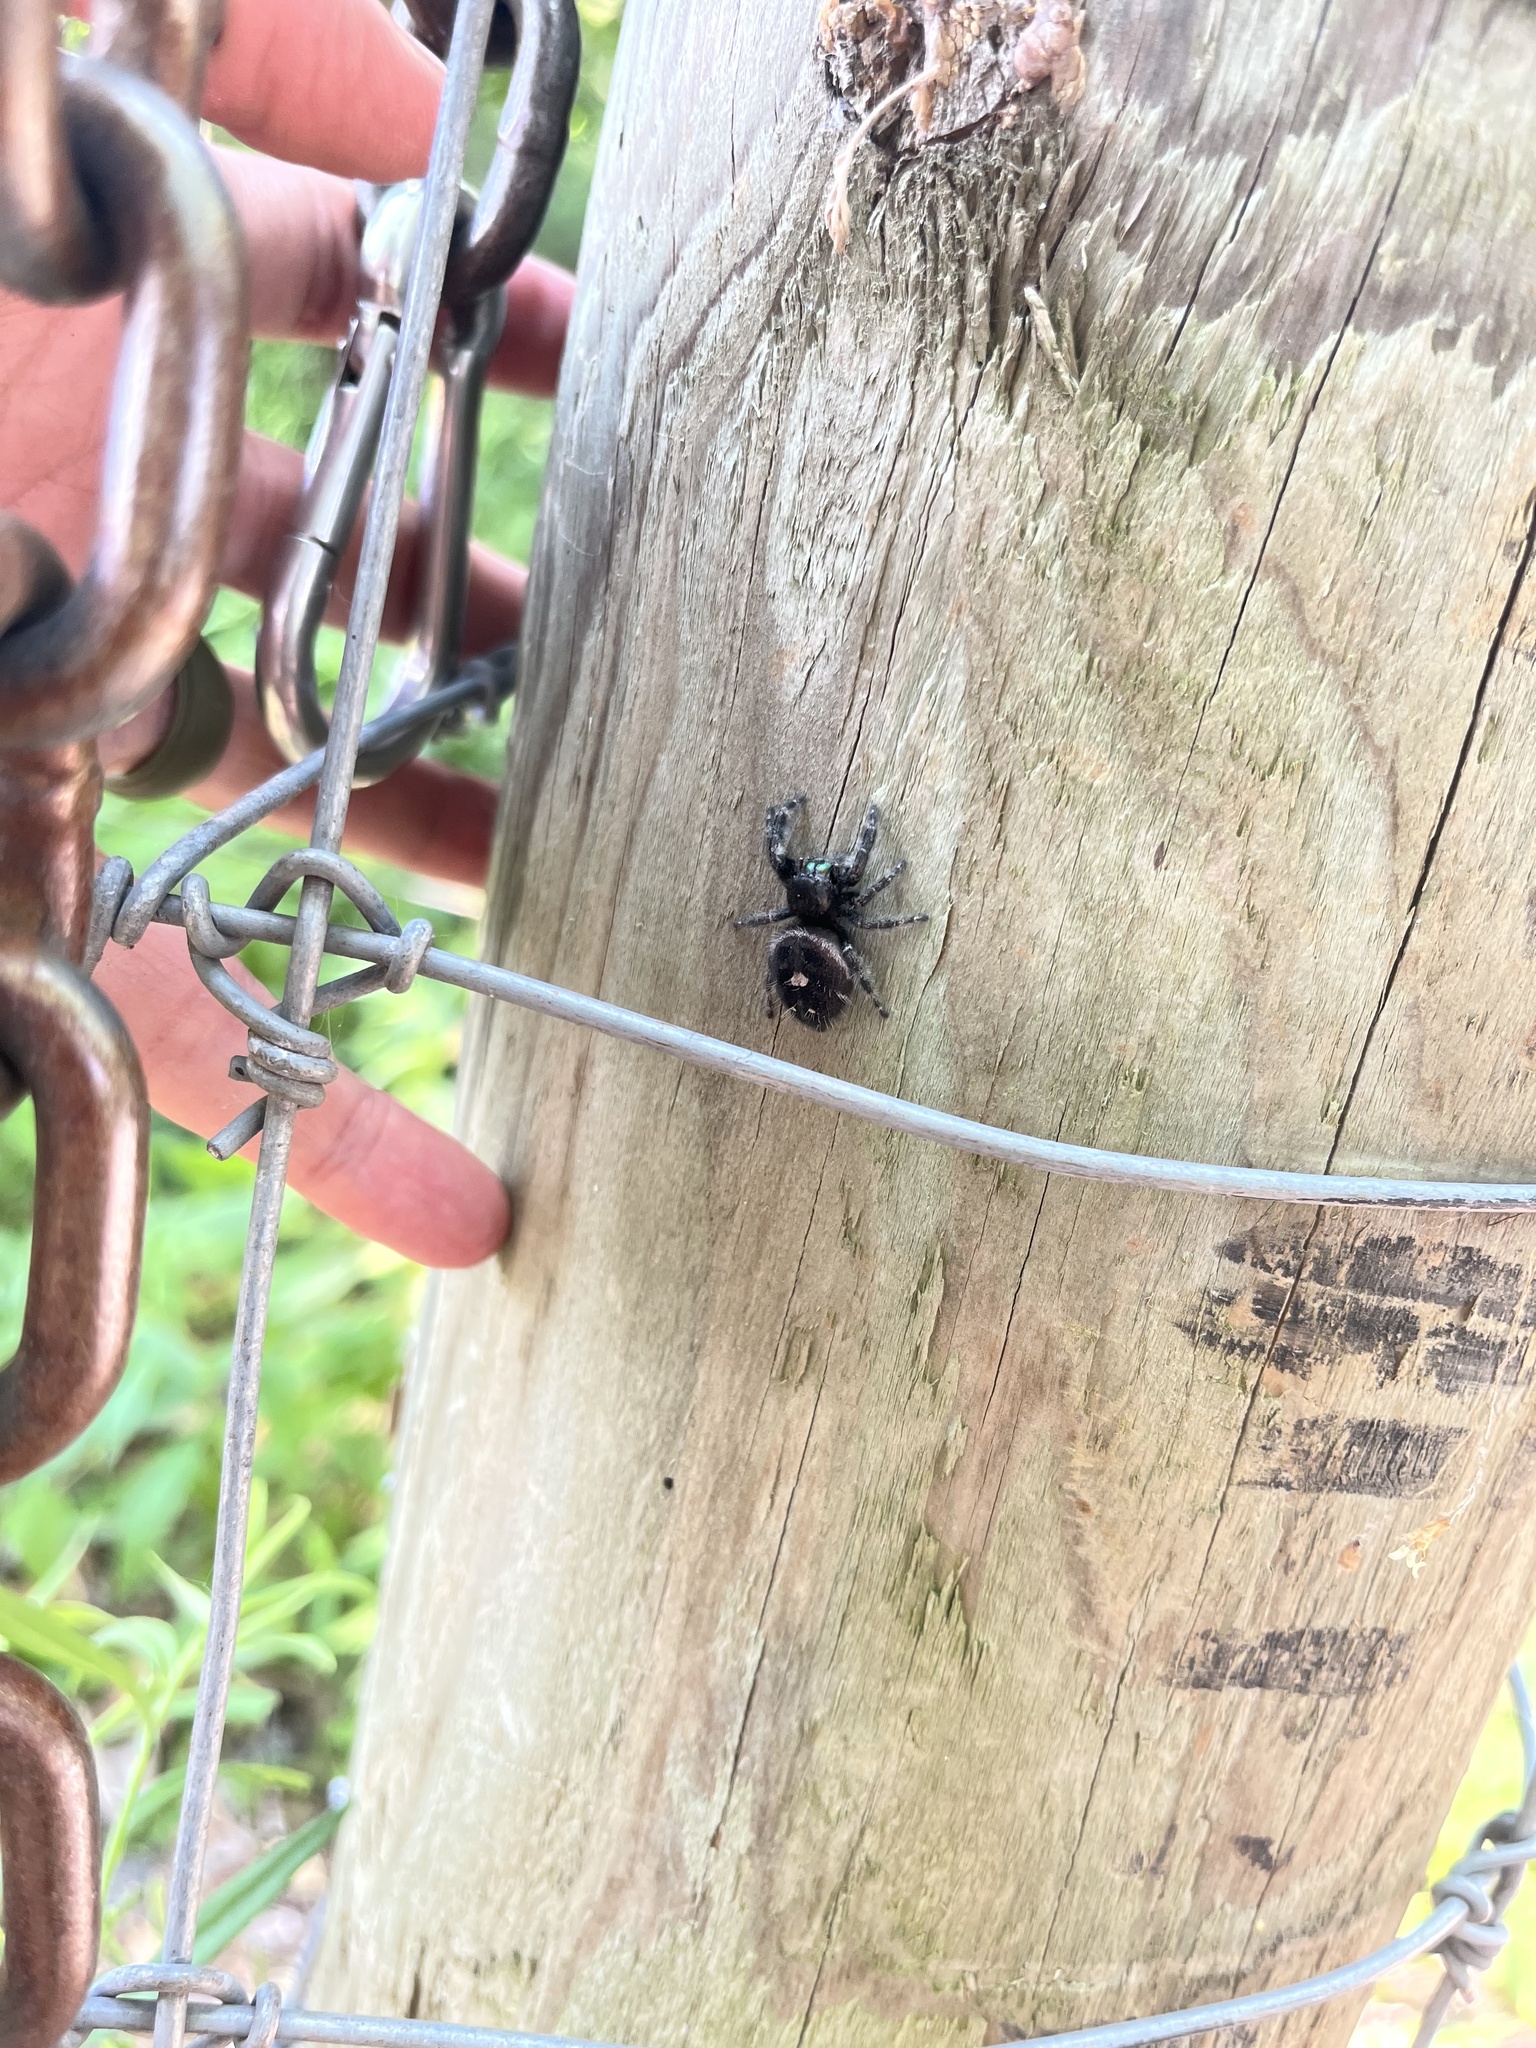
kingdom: Animalia
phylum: Arthropoda
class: Arachnida
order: Araneae
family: Salticidae
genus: Phidippus
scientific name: Phidippus audax
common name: Bold jumper
